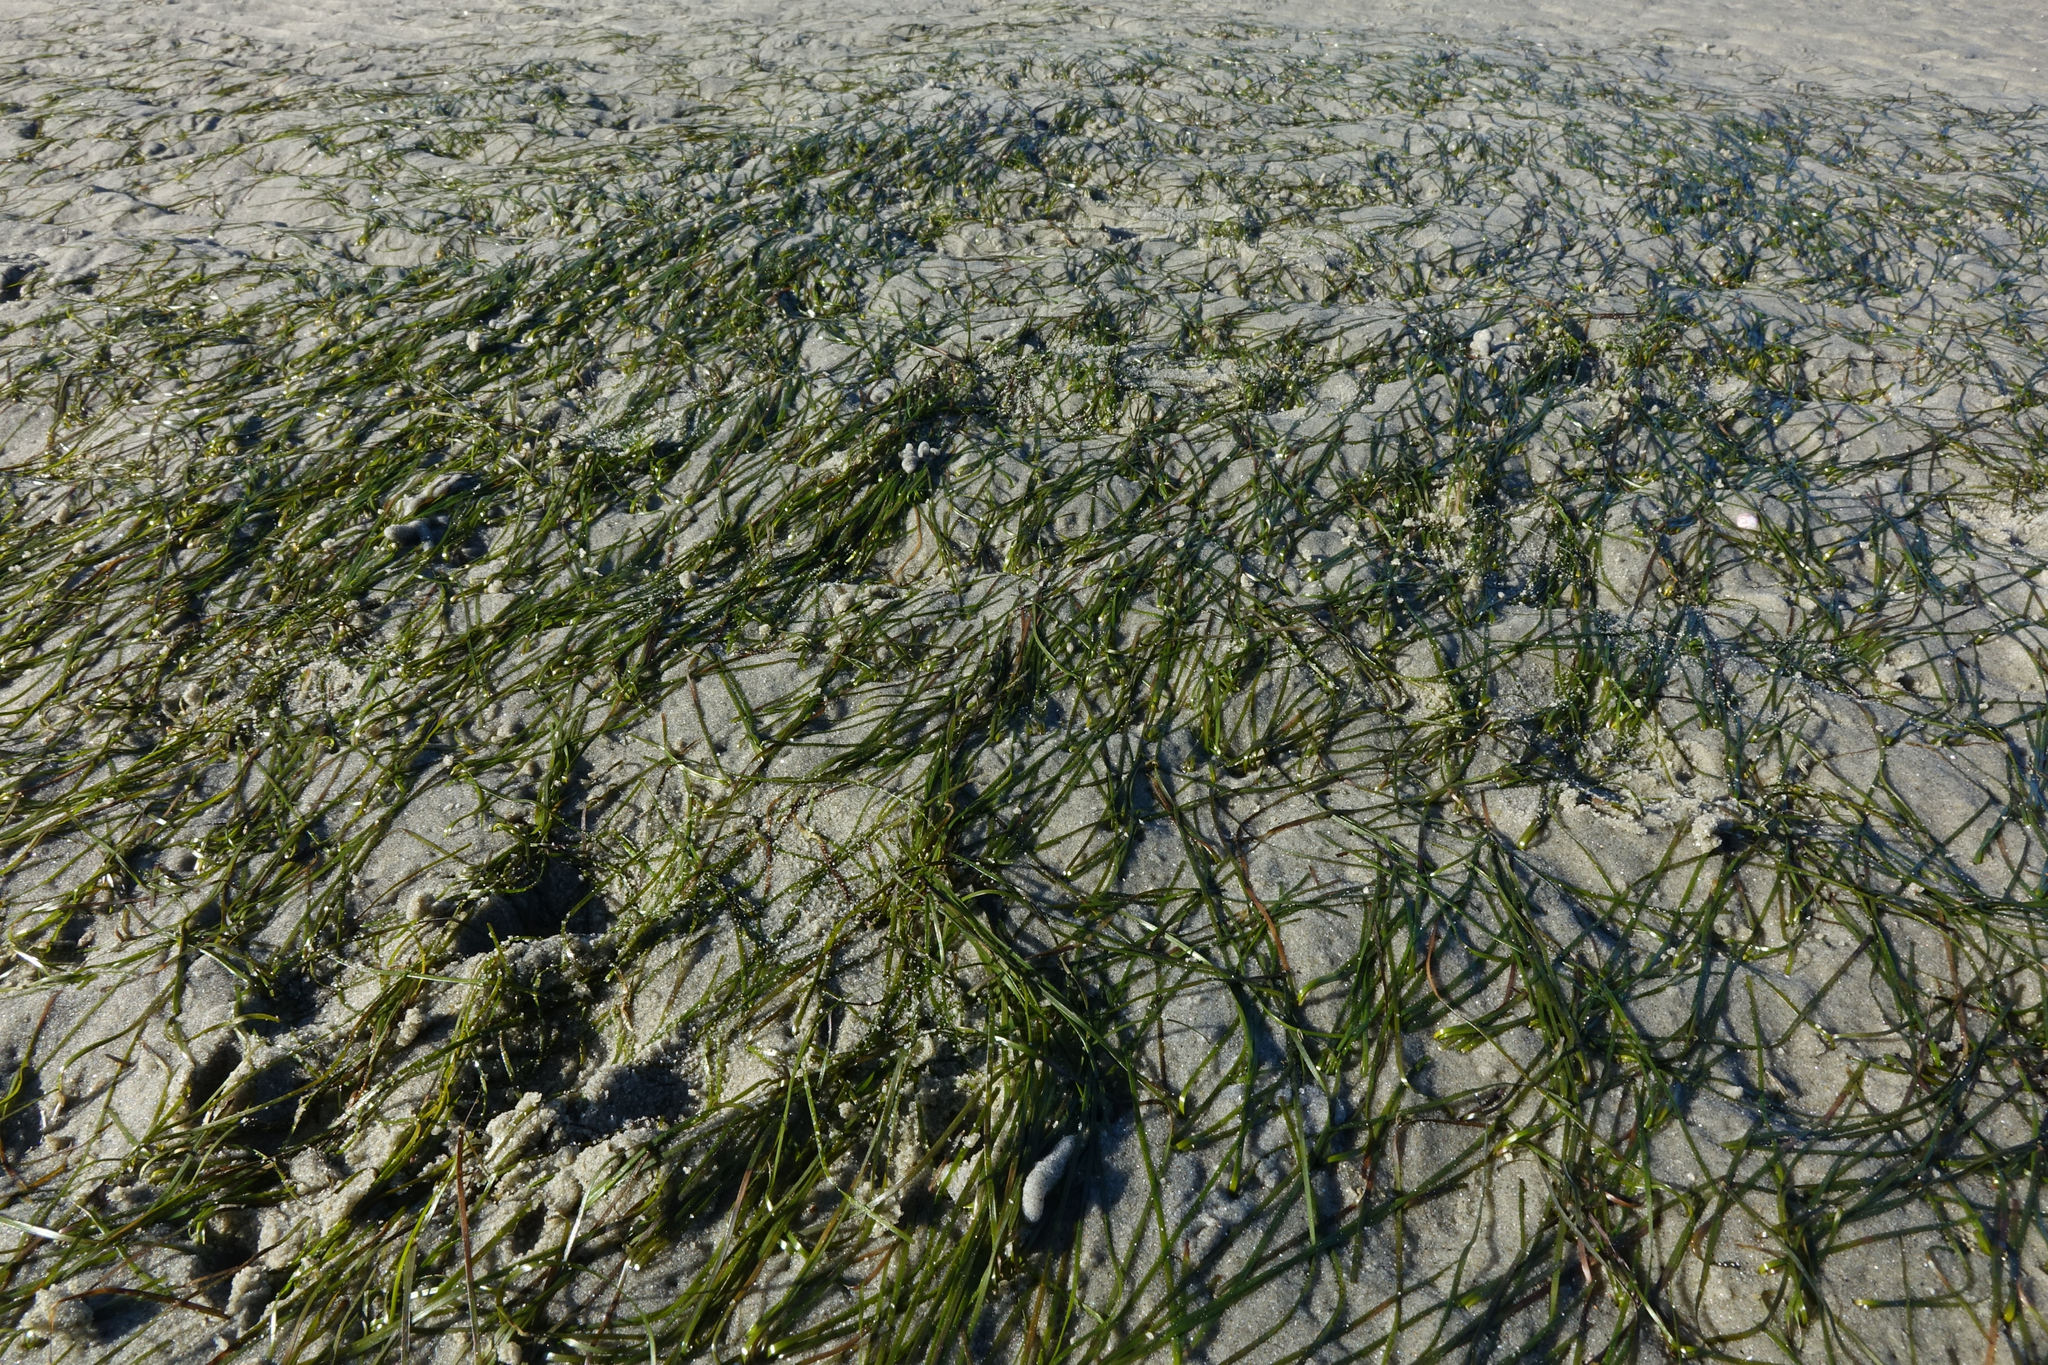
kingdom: Plantae
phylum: Tracheophyta
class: Liliopsida
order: Alismatales
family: Zosteraceae
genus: Zostera
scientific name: Zostera novazelandica
